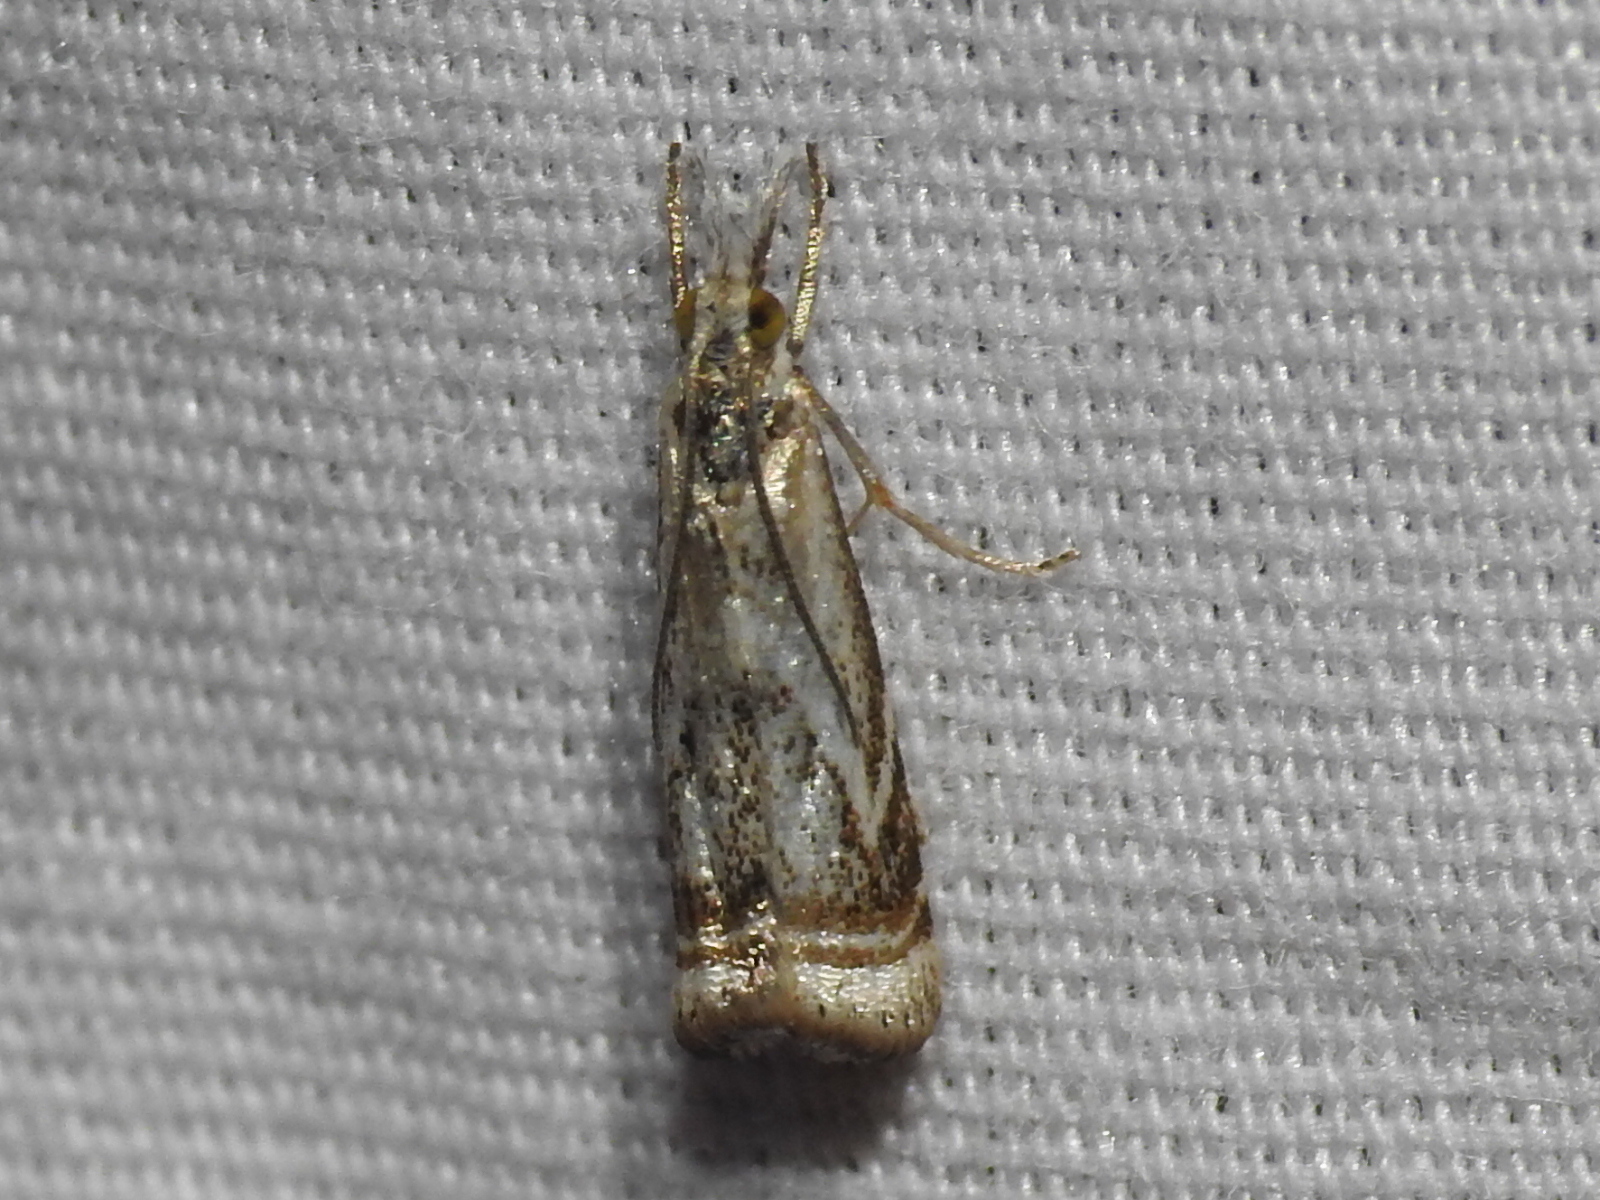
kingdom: Animalia
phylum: Arthropoda
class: Insecta
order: Lepidoptera
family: Crambidae
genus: Microcrambus
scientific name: Microcrambus elegans
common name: Elegant grass-veneer
